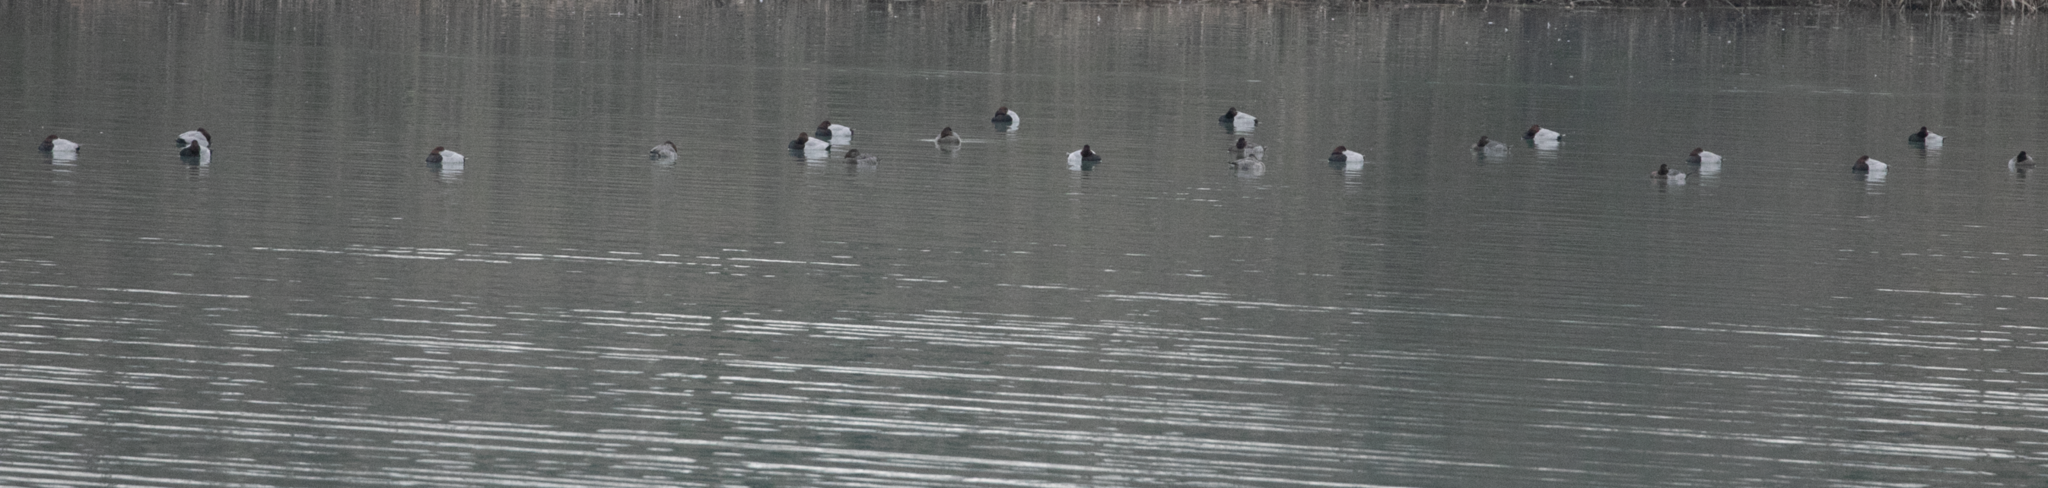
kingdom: Animalia
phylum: Chordata
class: Aves
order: Anseriformes
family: Anatidae
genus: Aythya
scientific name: Aythya ferina
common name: Common pochard
